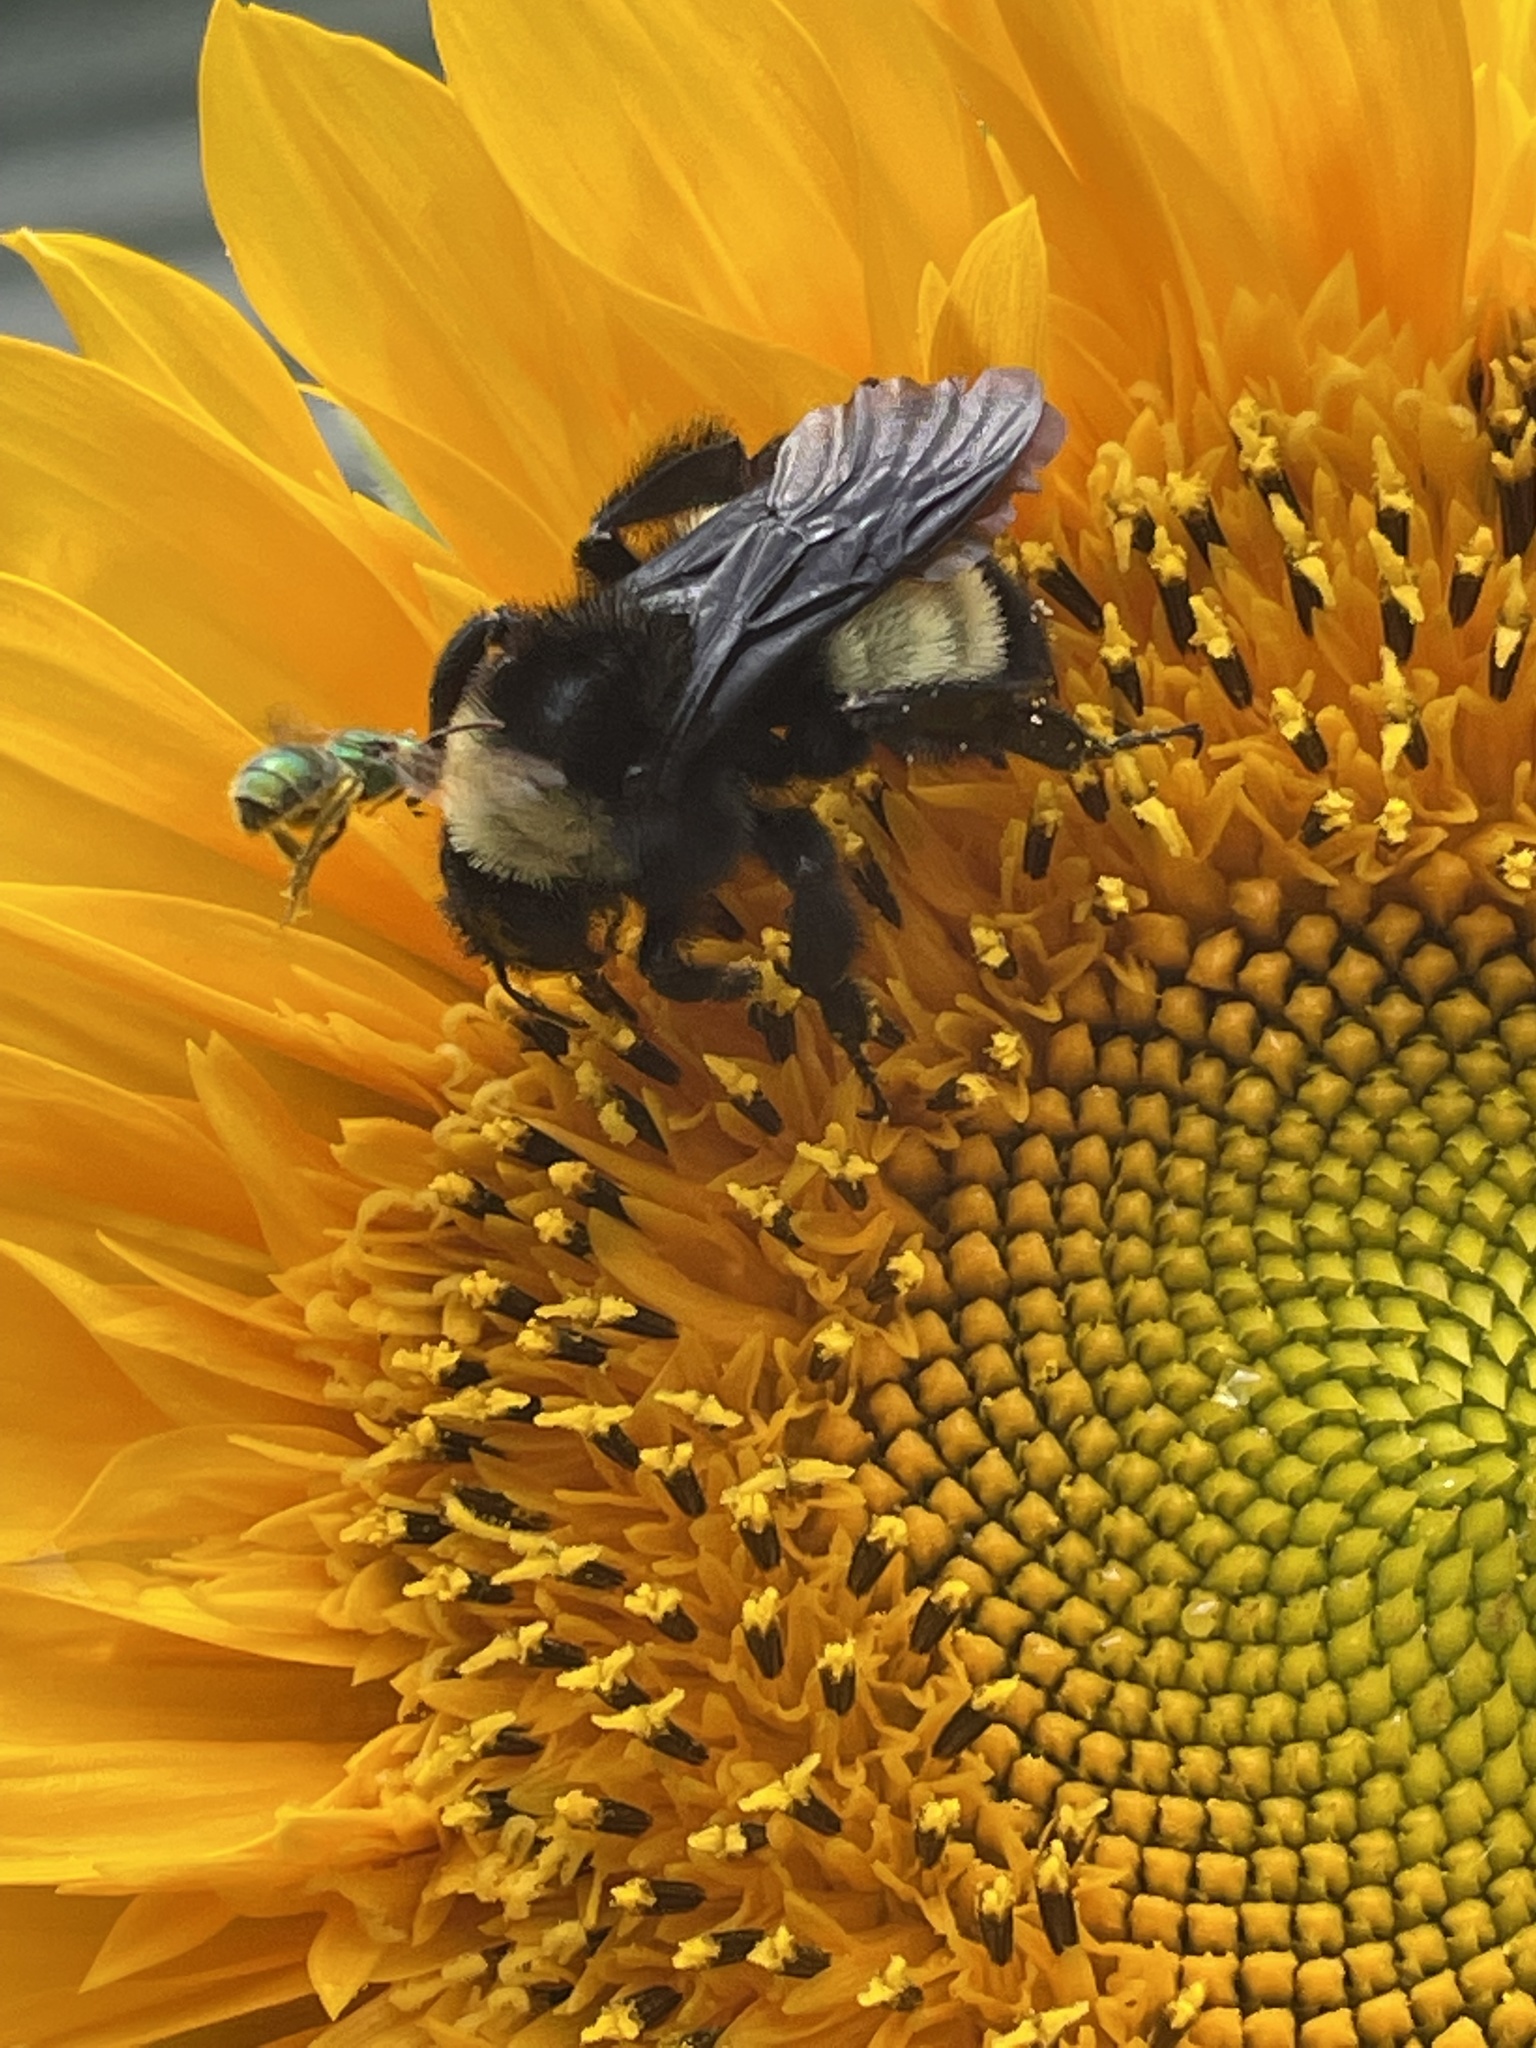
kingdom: Animalia
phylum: Arthropoda
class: Insecta
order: Hymenoptera
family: Apidae
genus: Bombus
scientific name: Bombus pensylvanicus
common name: Bumble bee
